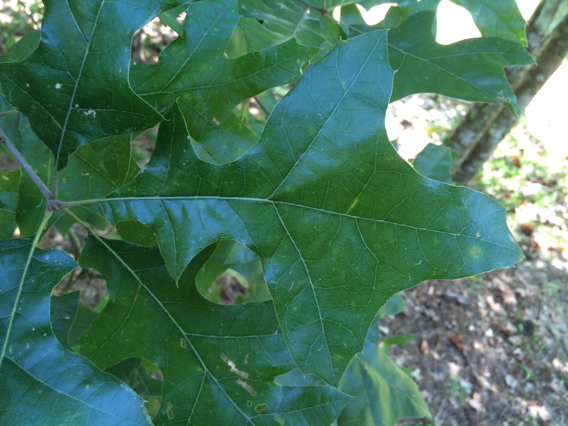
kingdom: Plantae
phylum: Tracheophyta
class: Magnoliopsida
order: Fagales
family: Fagaceae
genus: Quercus
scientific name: Quercus falcata
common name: Southern red oak
